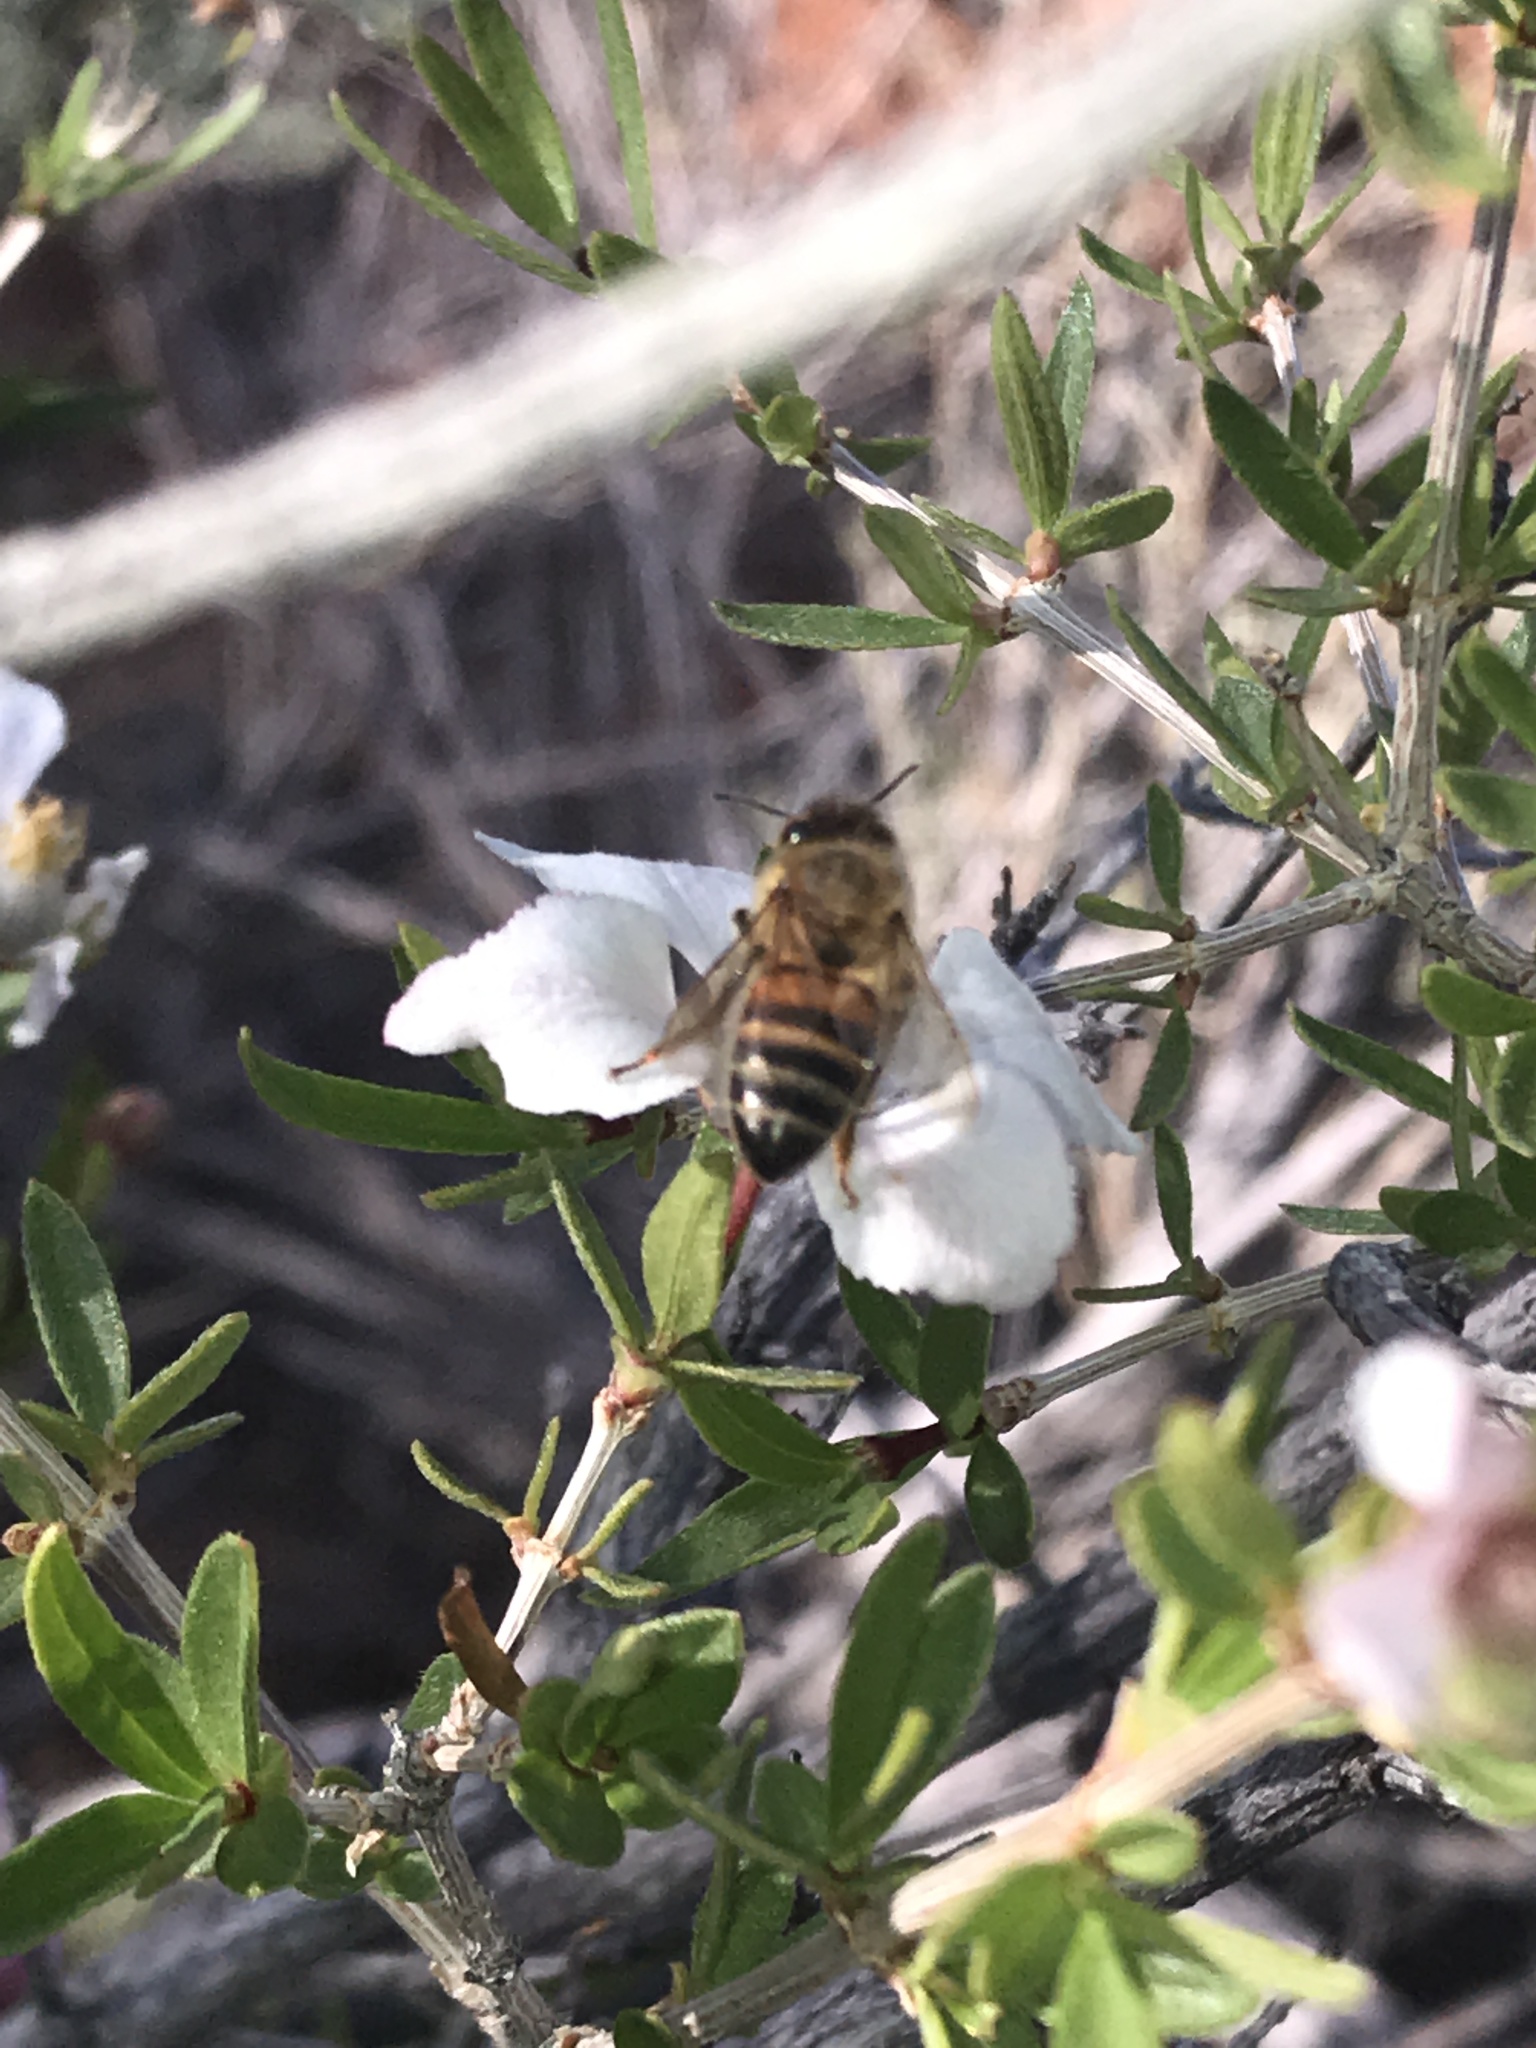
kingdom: Animalia
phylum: Arthropoda
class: Insecta
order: Hymenoptera
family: Apidae
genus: Apis
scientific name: Apis mellifera
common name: Honey bee
